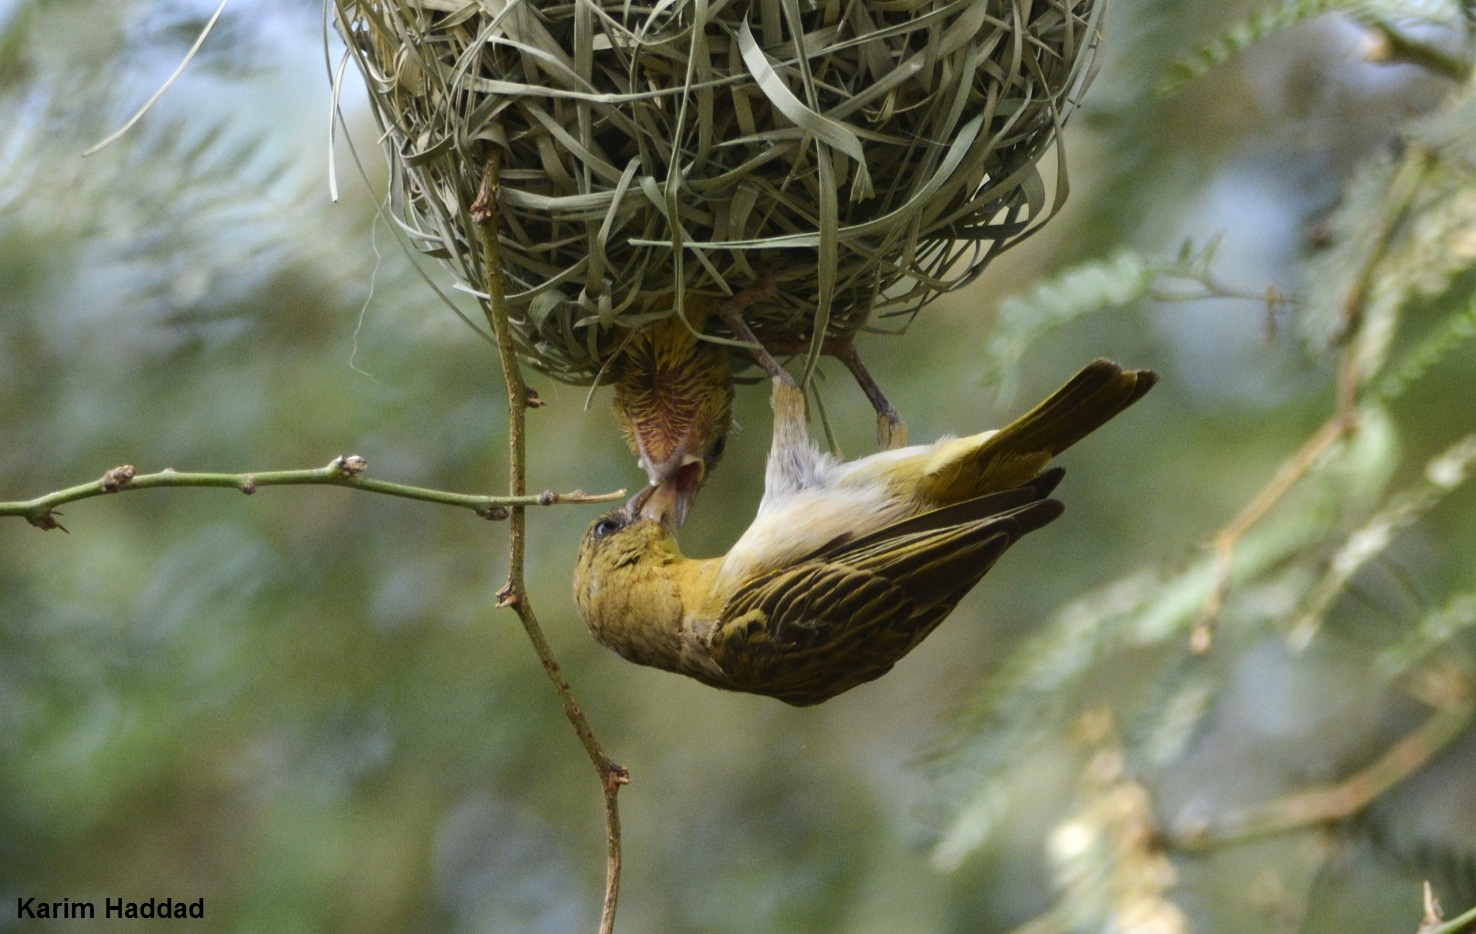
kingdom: Animalia
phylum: Chordata
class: Aves
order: Passeriformes
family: Ploceidae
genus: Ploceus
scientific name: Ploceus vitellinus
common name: Vitelline masked weaver
